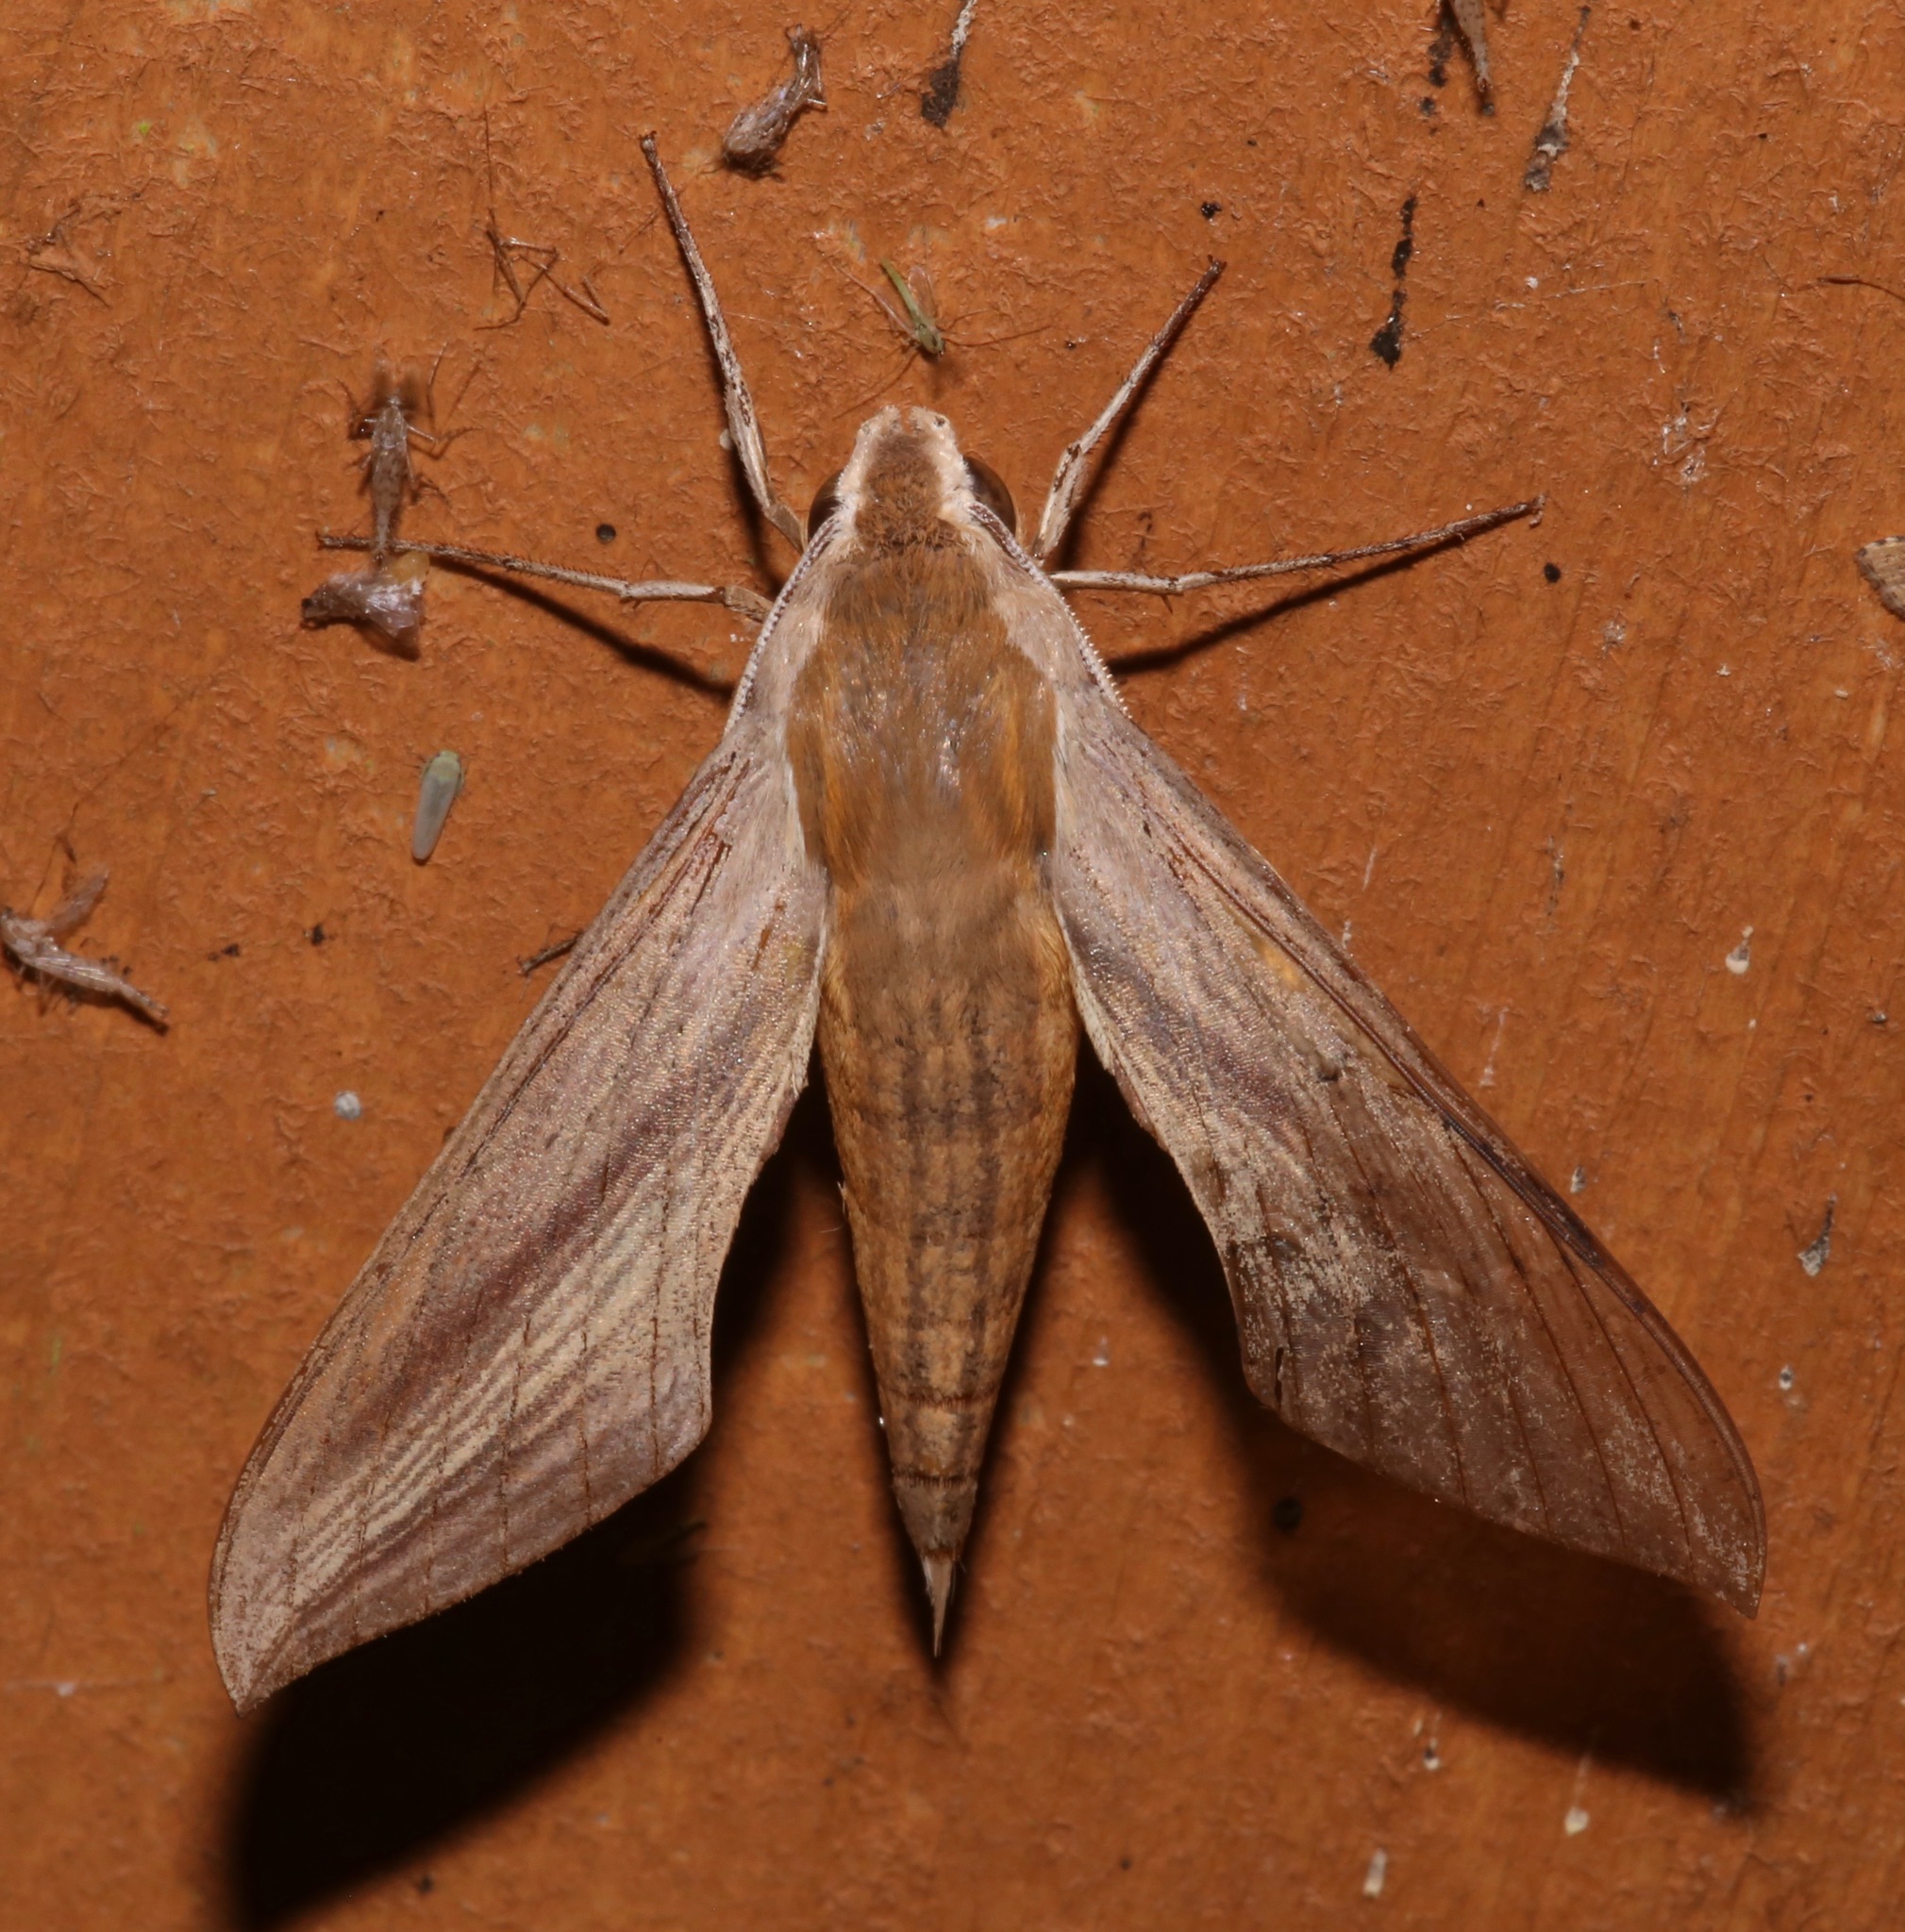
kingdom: Animalia
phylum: Arthropoda
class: Insecta
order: Lepidoptera
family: Sphingidae
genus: Xylophanes
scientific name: Xylophanes tersa
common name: Tersa sphinx
